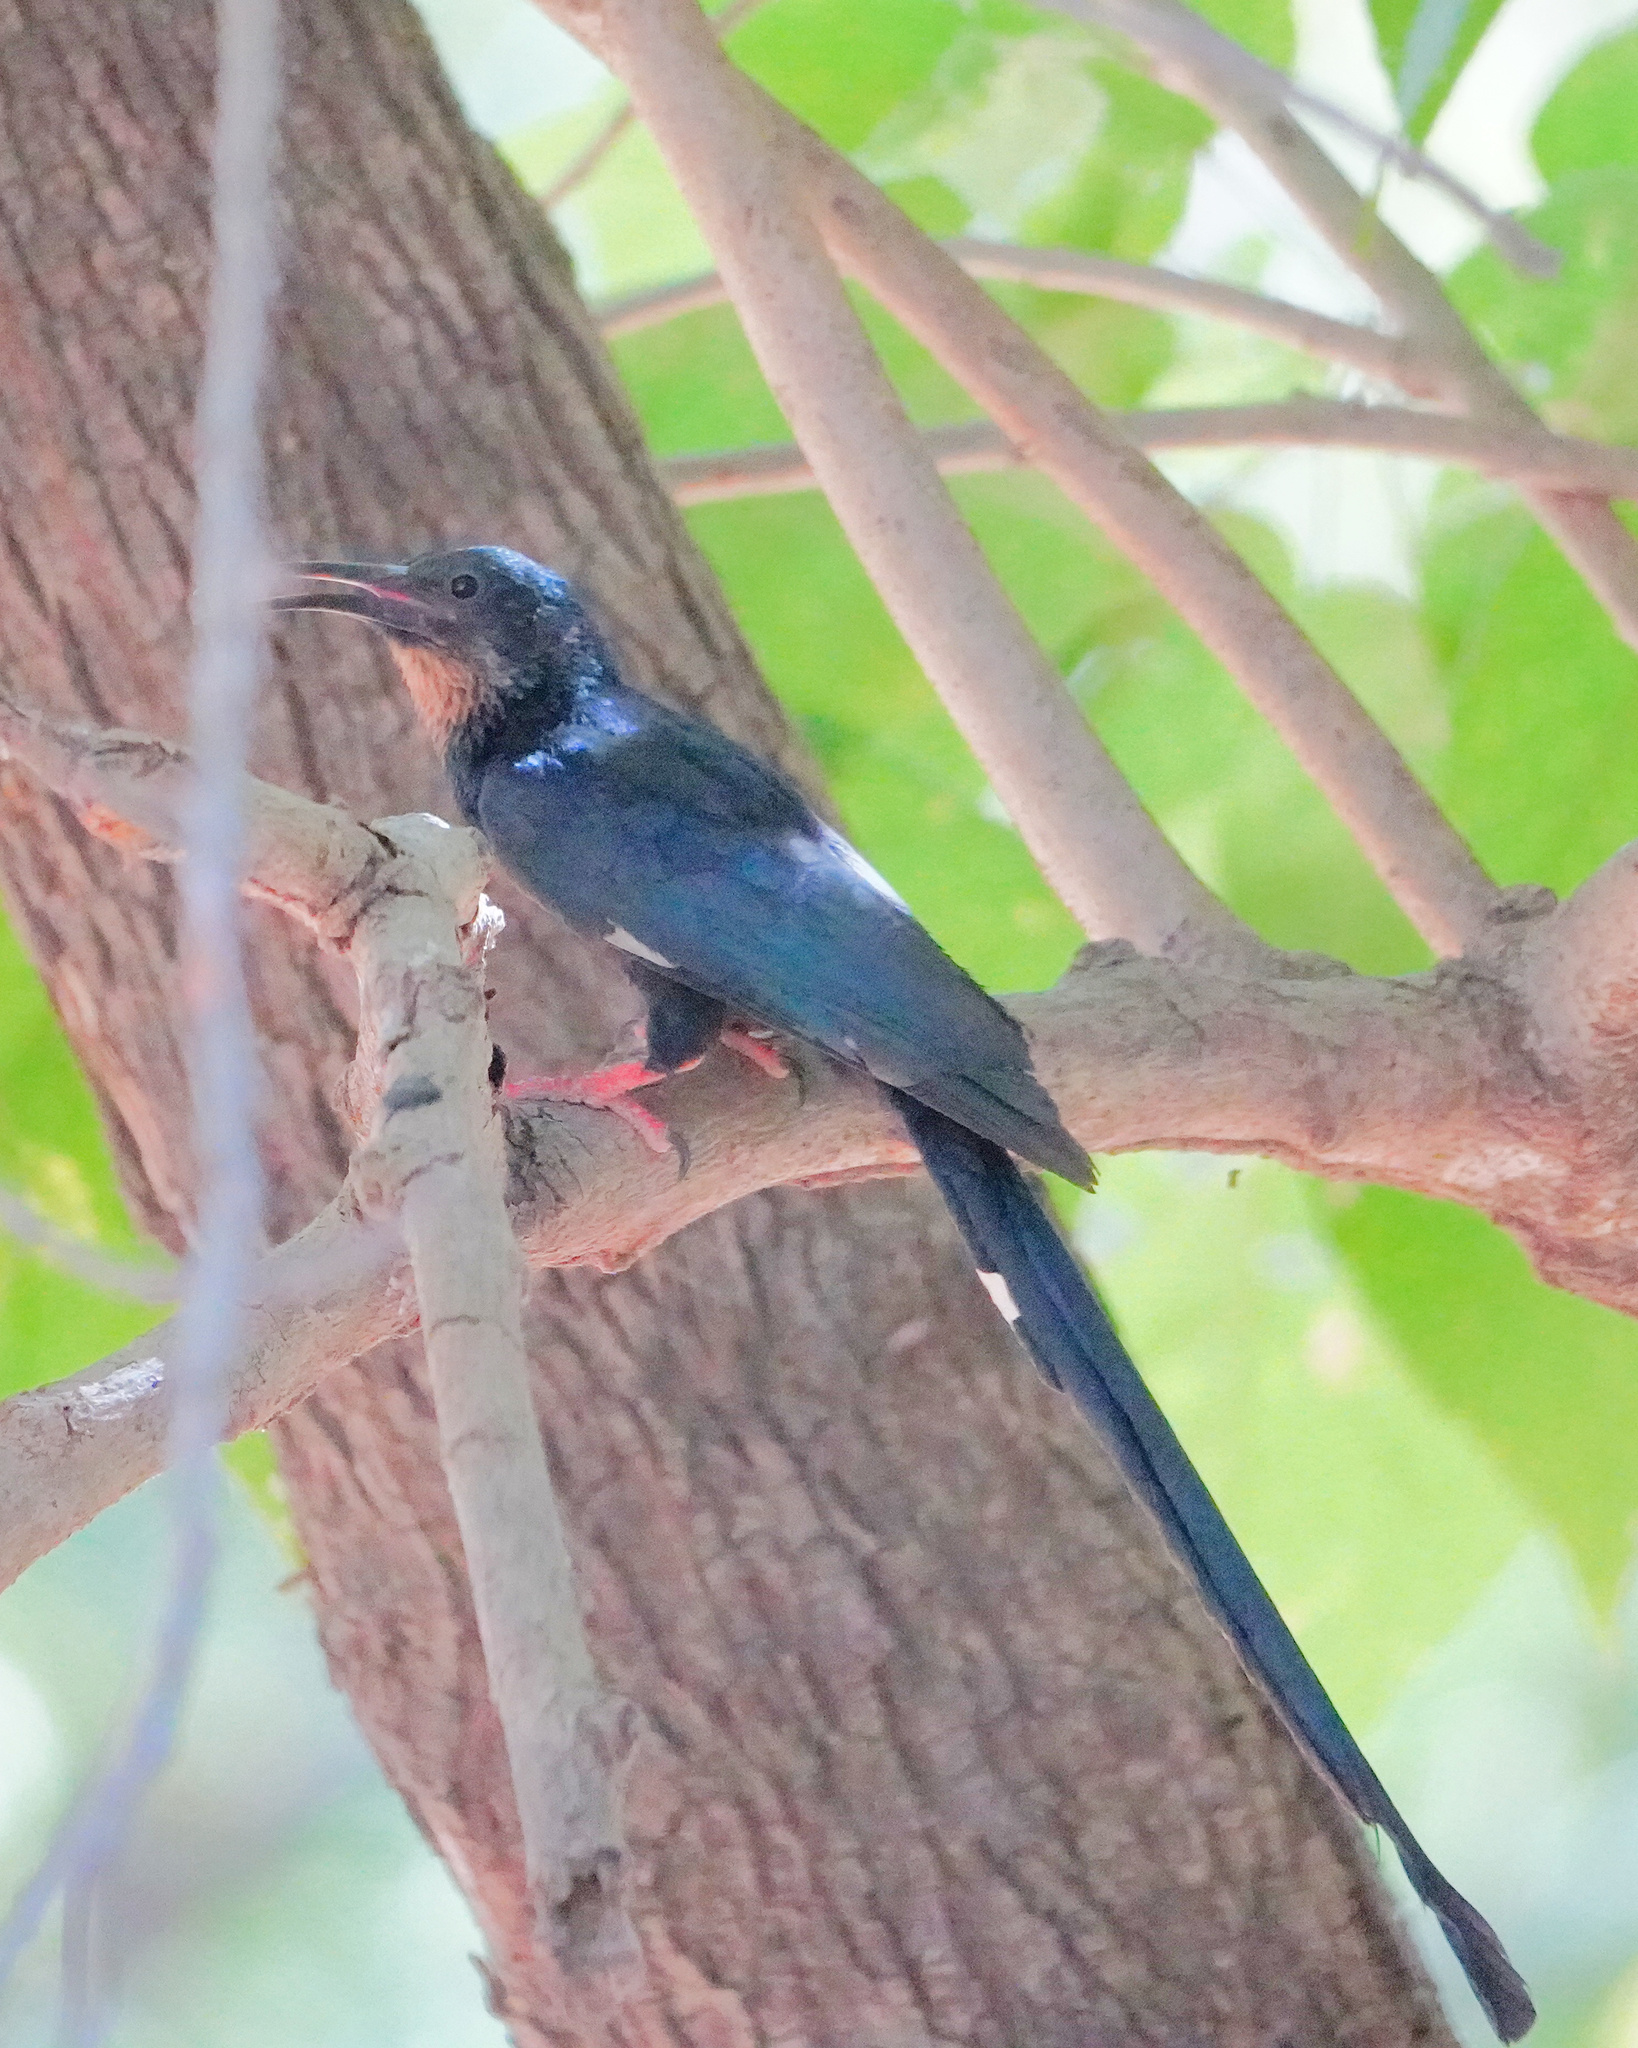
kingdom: Animalia
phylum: Chordata
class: Aves
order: Bucerotiformes
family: Phoeniculidae
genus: Phoeniculus
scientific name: Phoeniculus purpureus
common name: Green woodhoopoe
